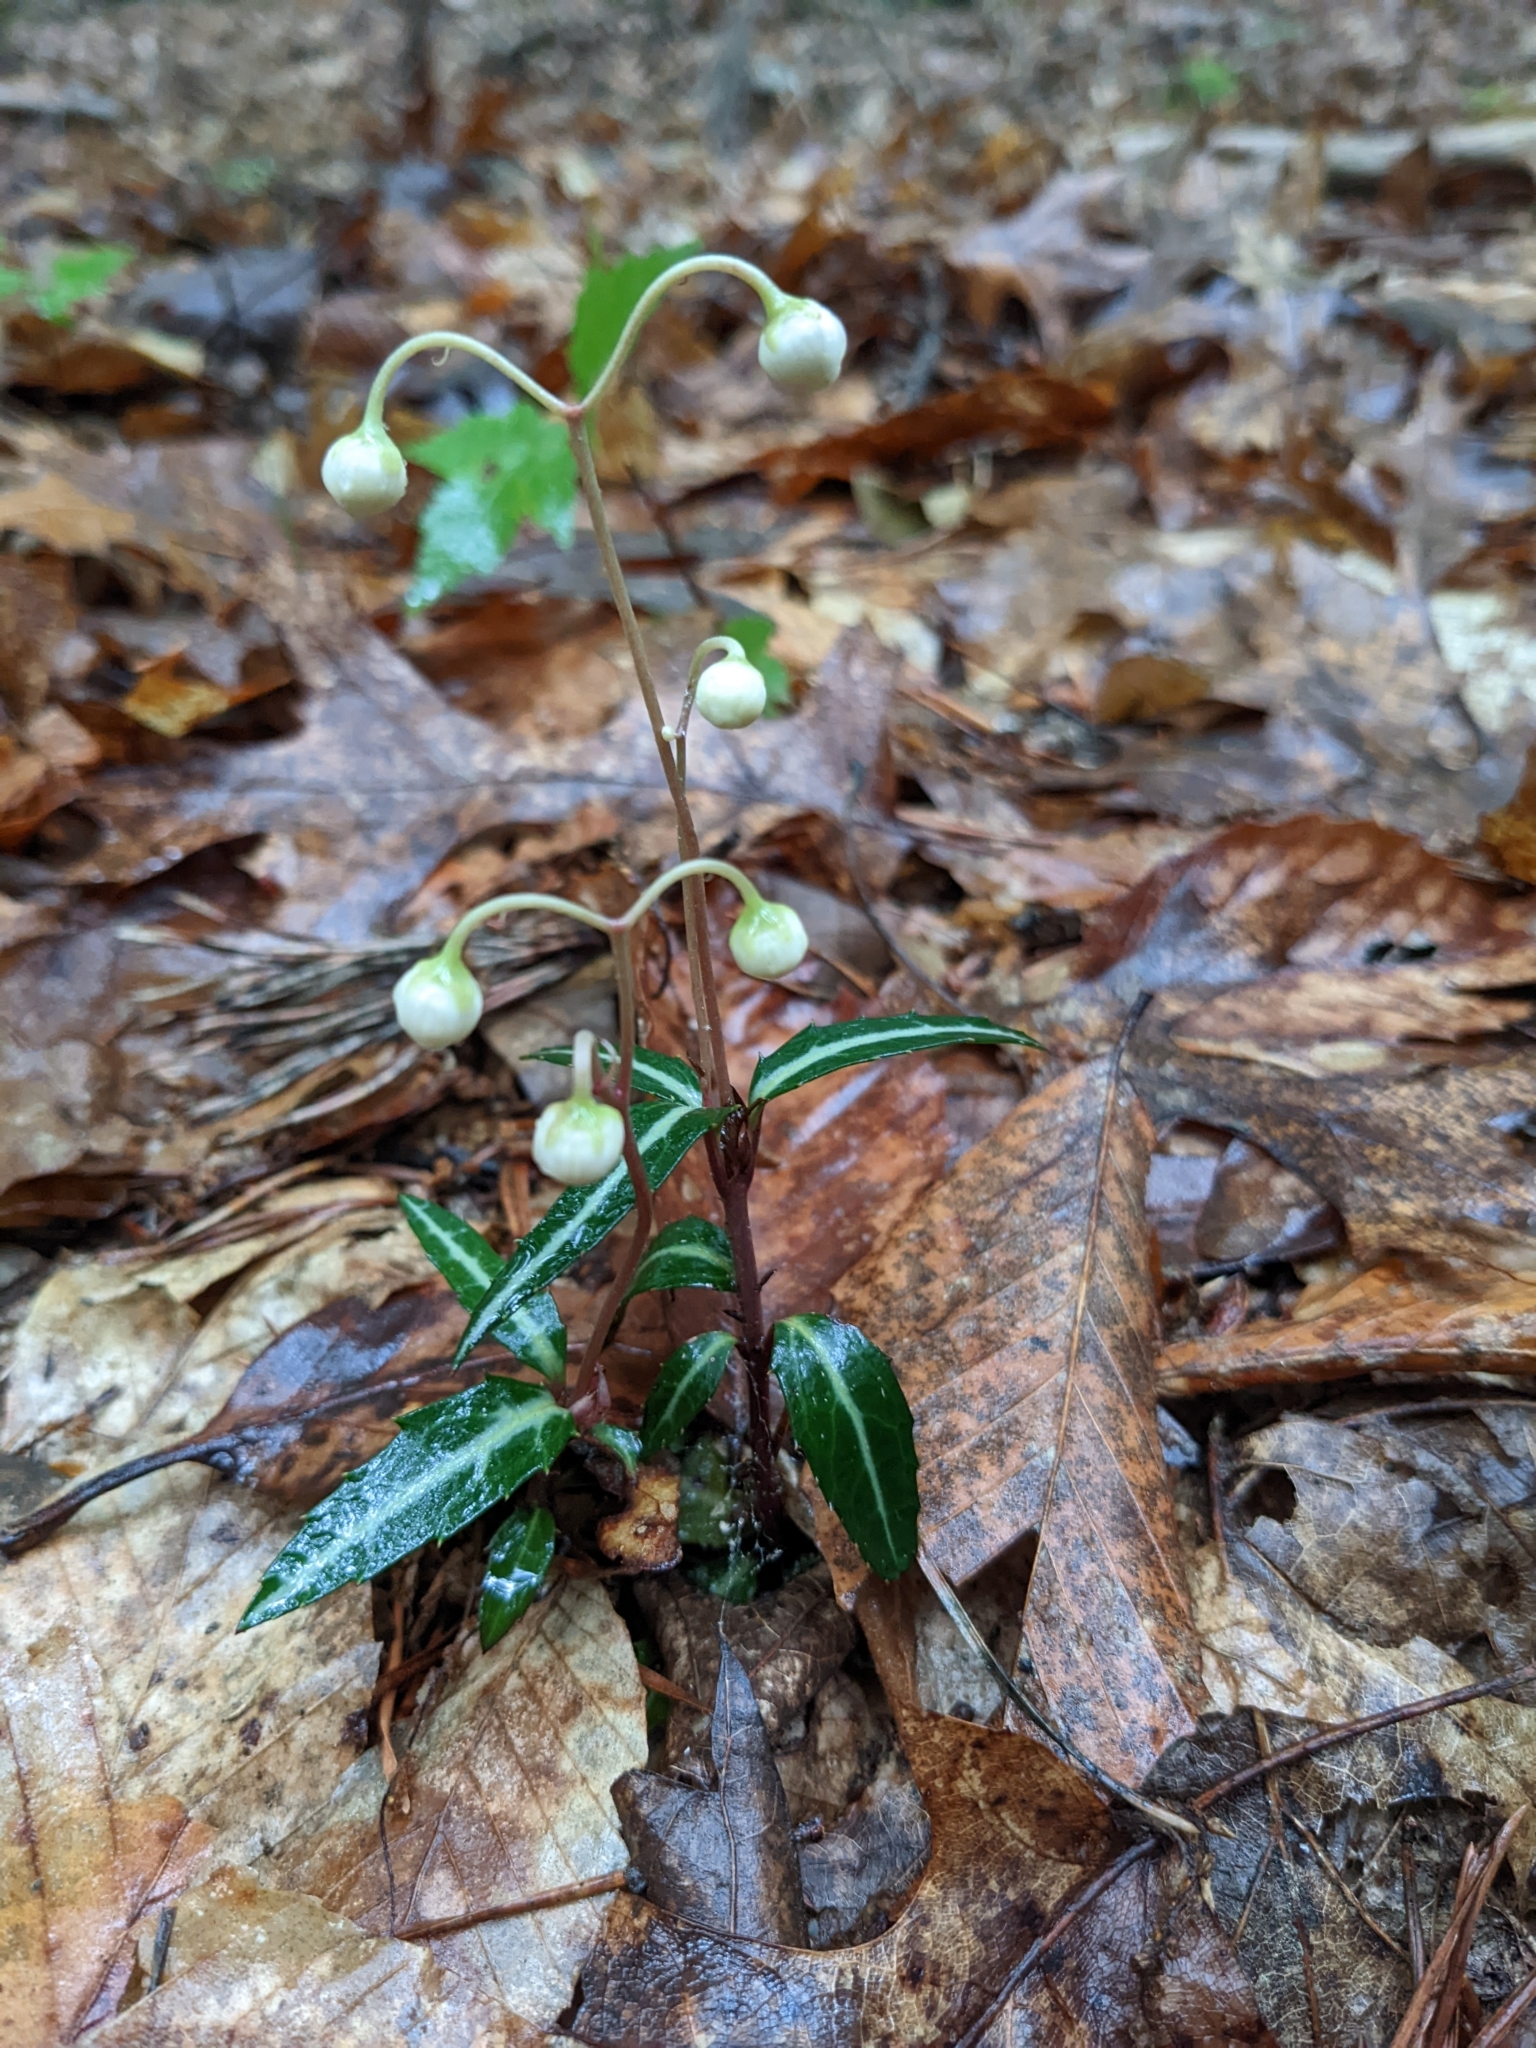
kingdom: Plantae
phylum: Tracheophyta
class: Magnoliopsida
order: Ericales
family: Ericaceae
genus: Chimaphila
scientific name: Chimaphila maculata
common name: Spotted pipsissewa
